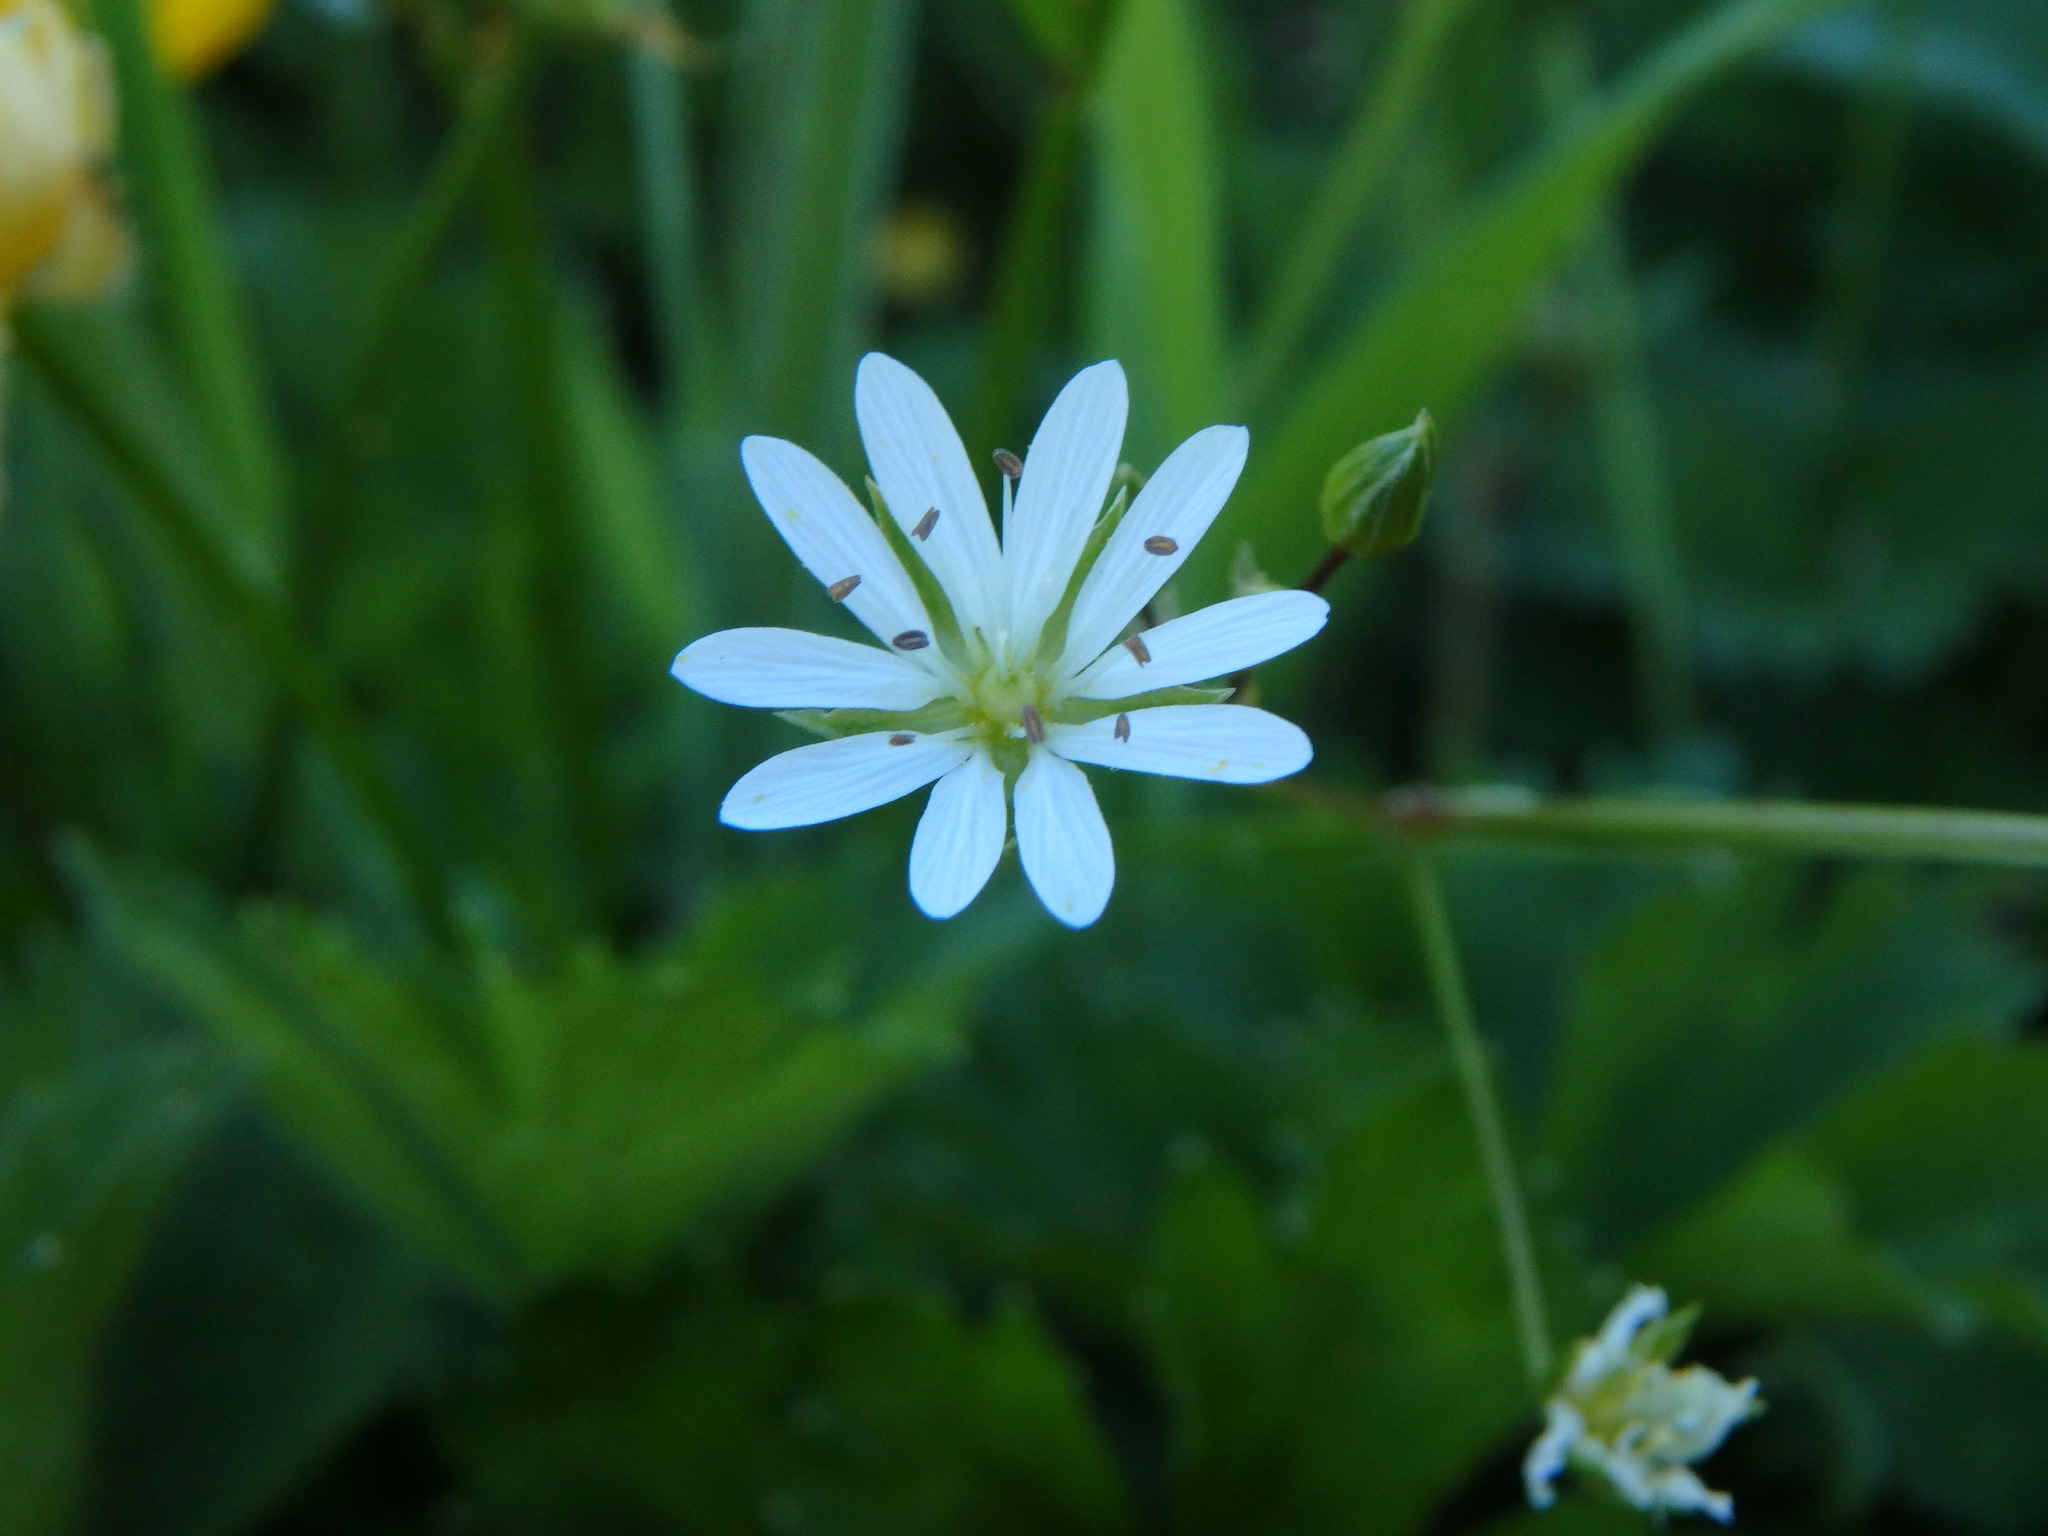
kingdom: Plantae
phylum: Tracheophyta
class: Magnoliopsida
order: Caryophyllales
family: Caryophyllaceae
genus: Stellaria
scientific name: Stellaria graminea
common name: Grass-like starwort
